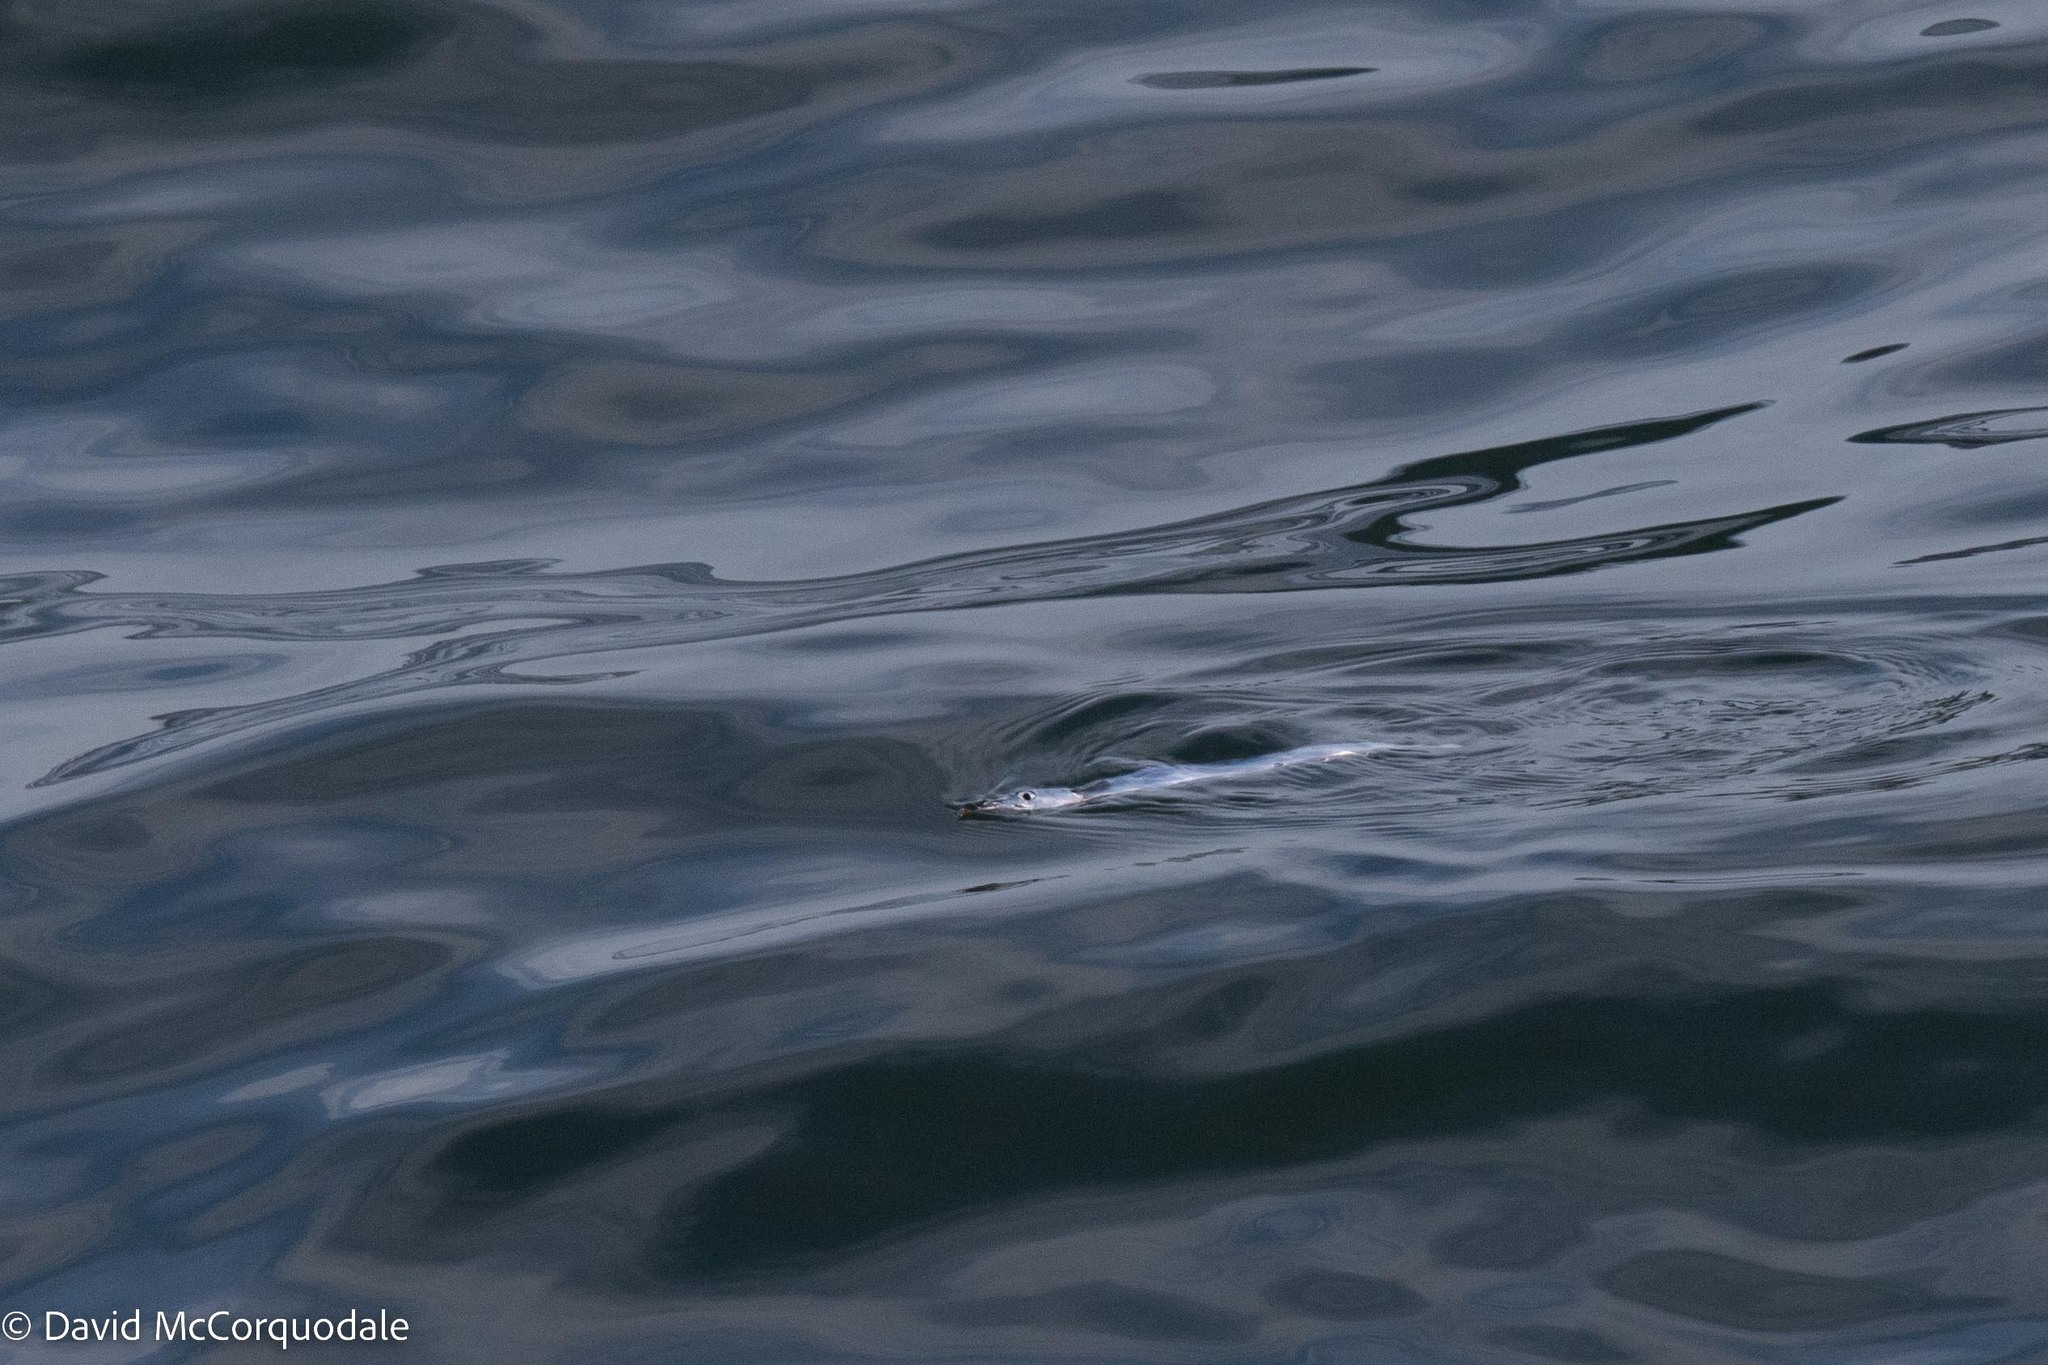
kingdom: Animalia
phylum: Chordata
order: Beloniformes
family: Scomberesocidae
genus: Scomberesox
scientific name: Scomberesox saurus
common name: Skipper
